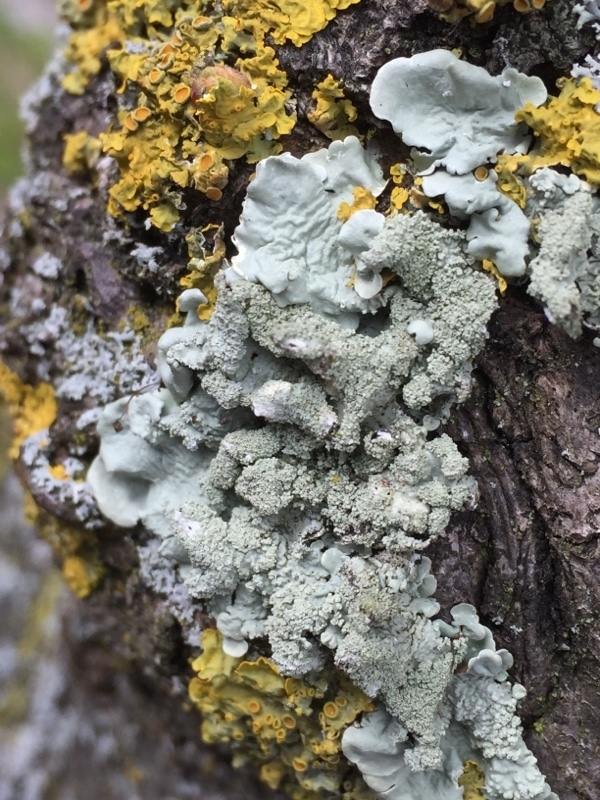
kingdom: Fungi
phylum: Ascomycota
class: Lecanoromycetes
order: Teloschistales
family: Teloschistaceae
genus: Xanthoria
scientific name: Xanthoria parietina
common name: Common orange lichen
